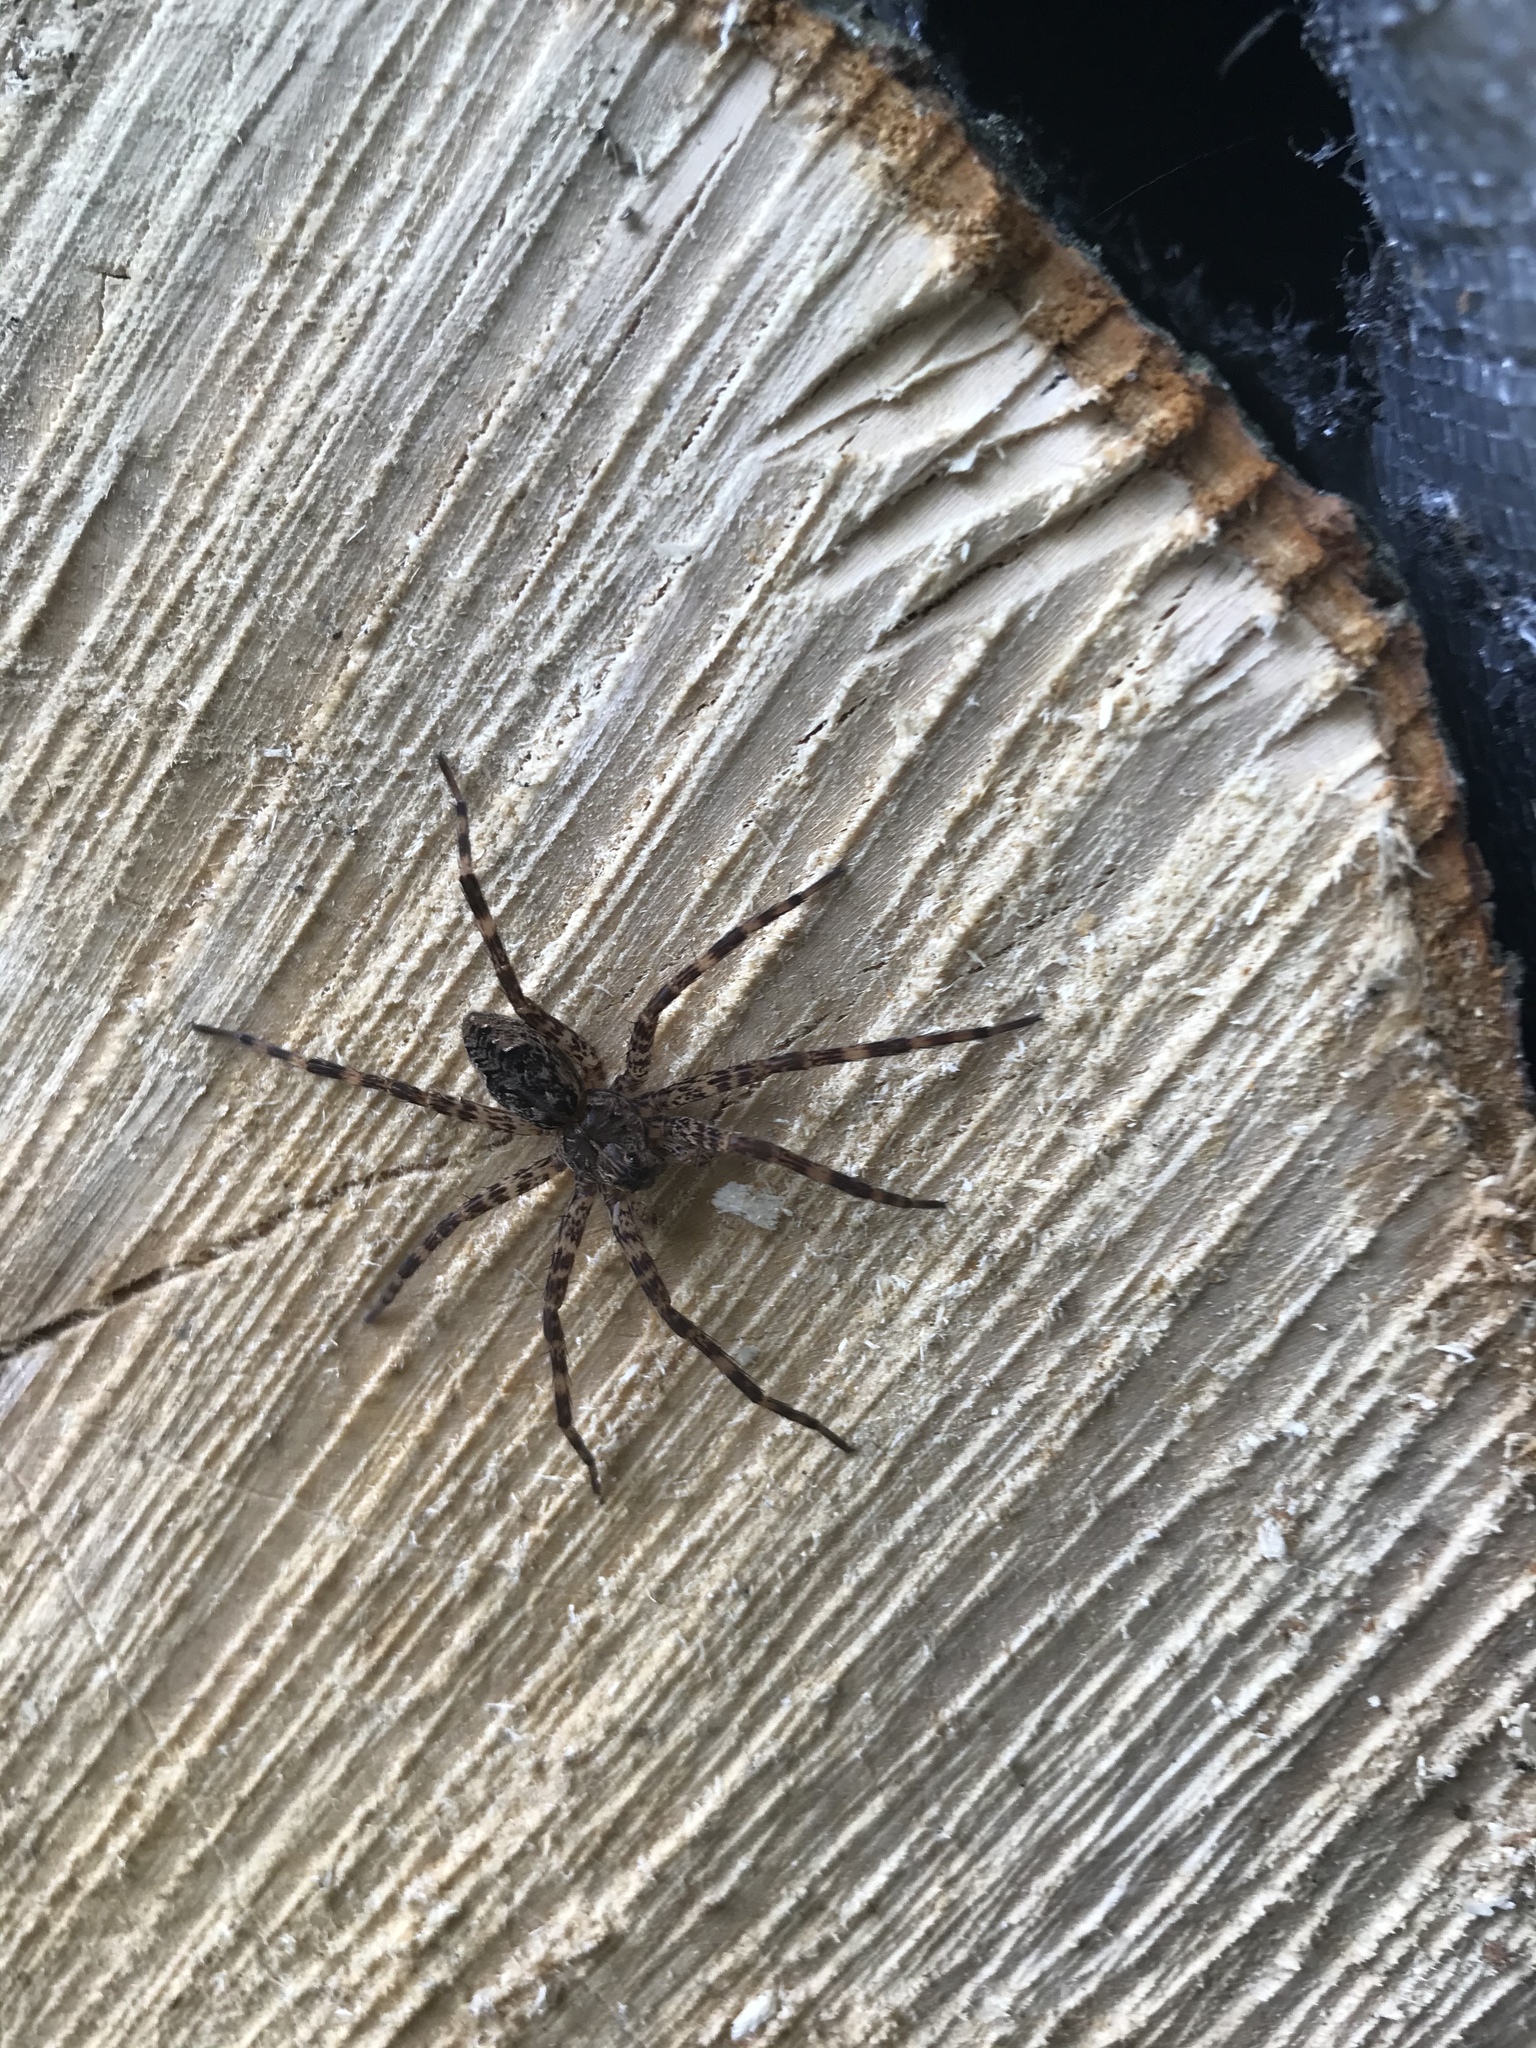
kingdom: Animalia
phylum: Arthropoda
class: Arachnida
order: Araneae
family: Pisauridae
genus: Dolomedes
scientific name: Dolomedes tenebrosus
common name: Dark fishing spider
